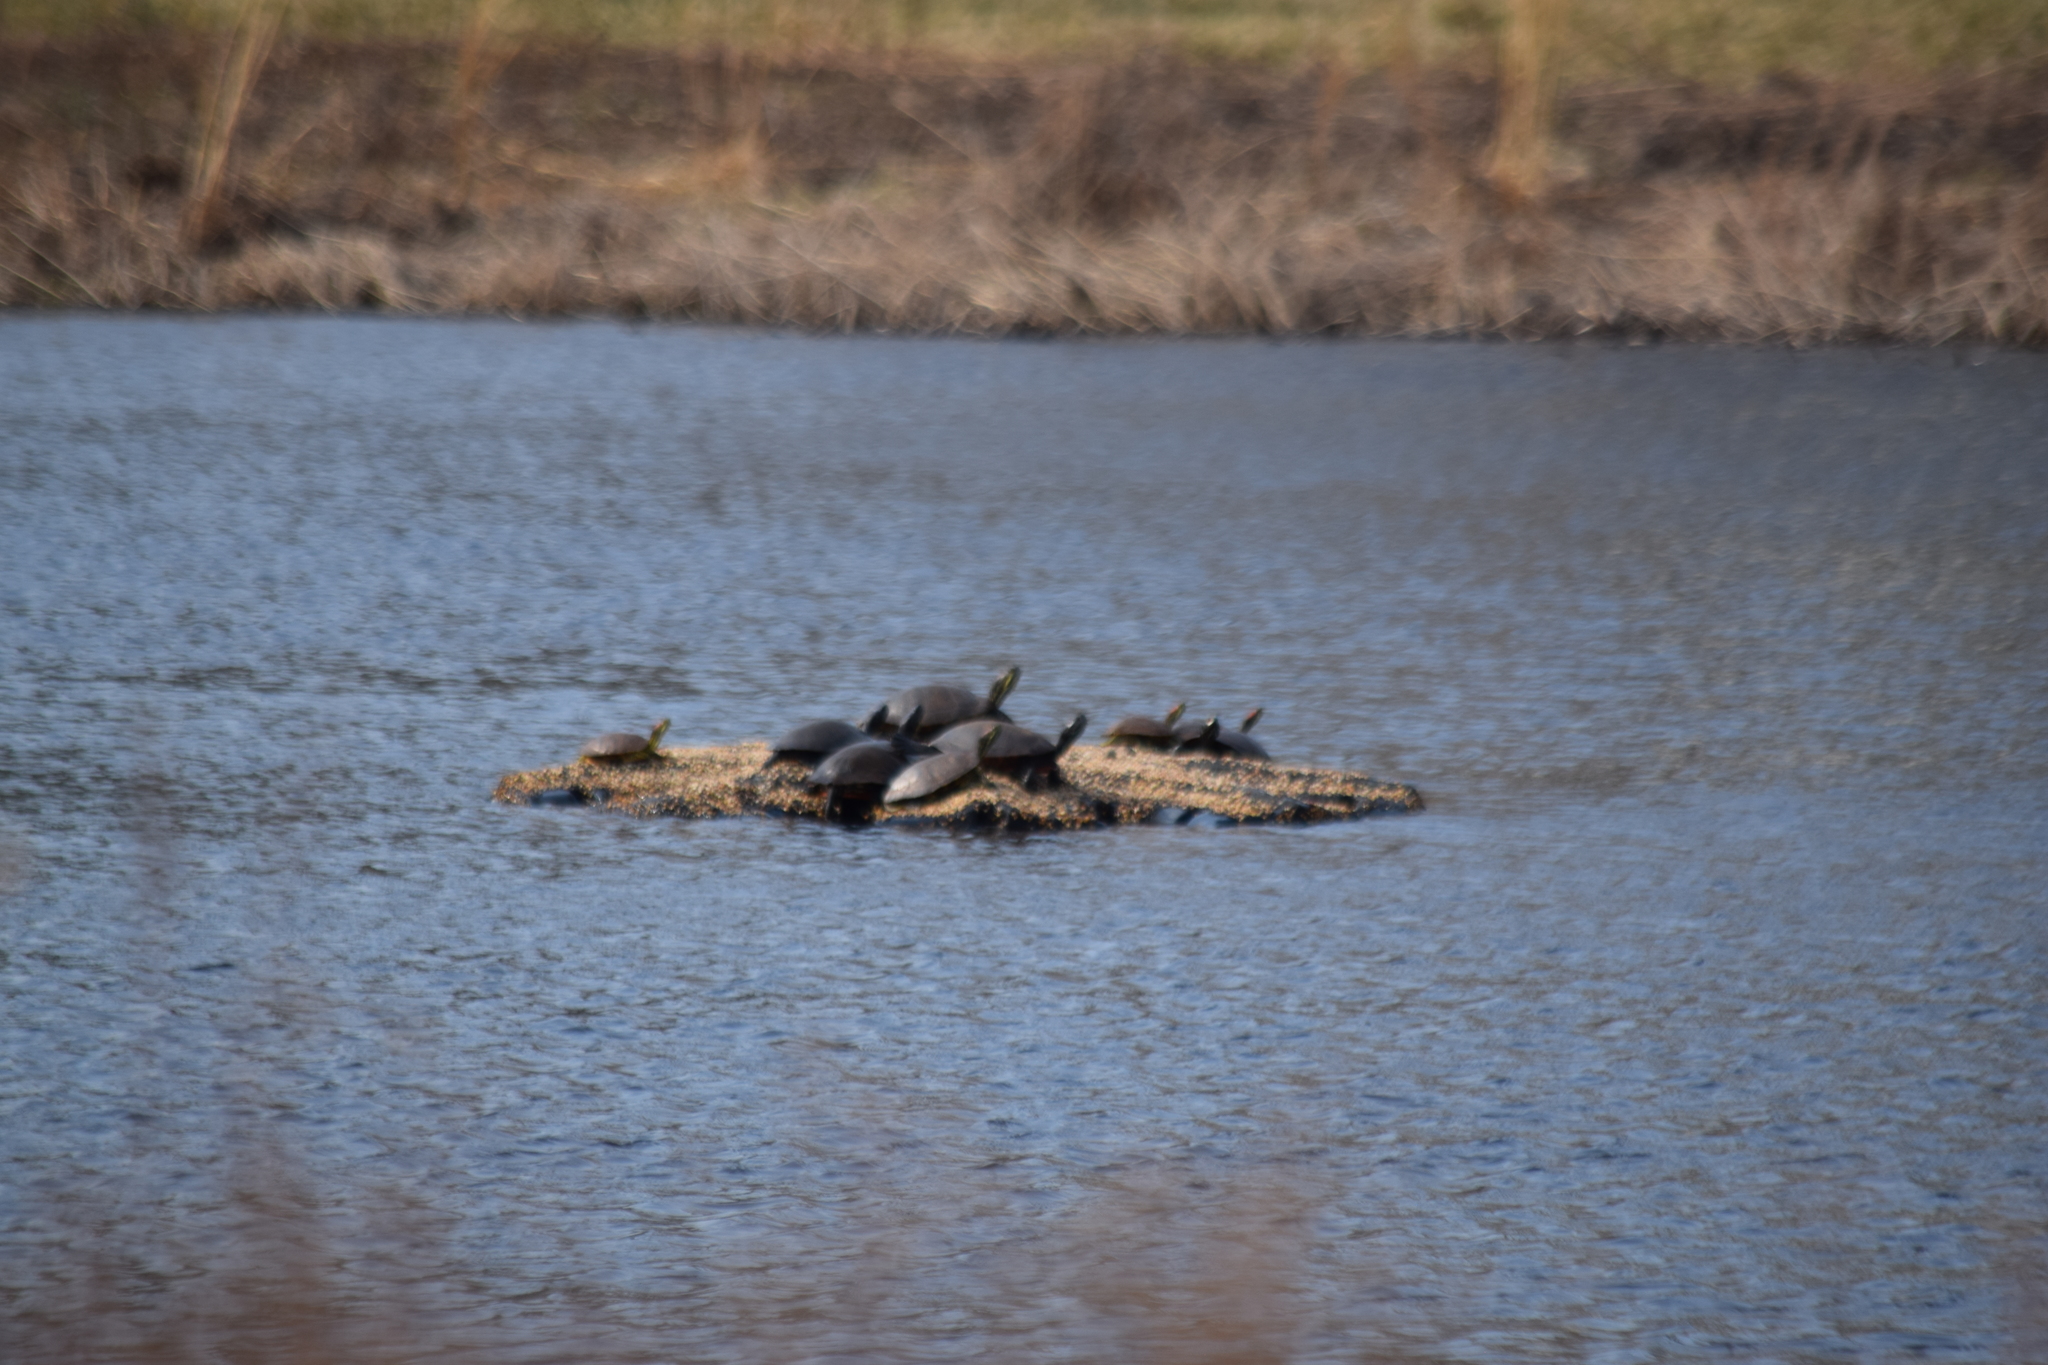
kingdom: Animalia
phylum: Chordata
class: Testudines
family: Emydidae
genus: Pseudemys
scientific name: Pseudemys rubriventris
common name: American red-bellied turtle
